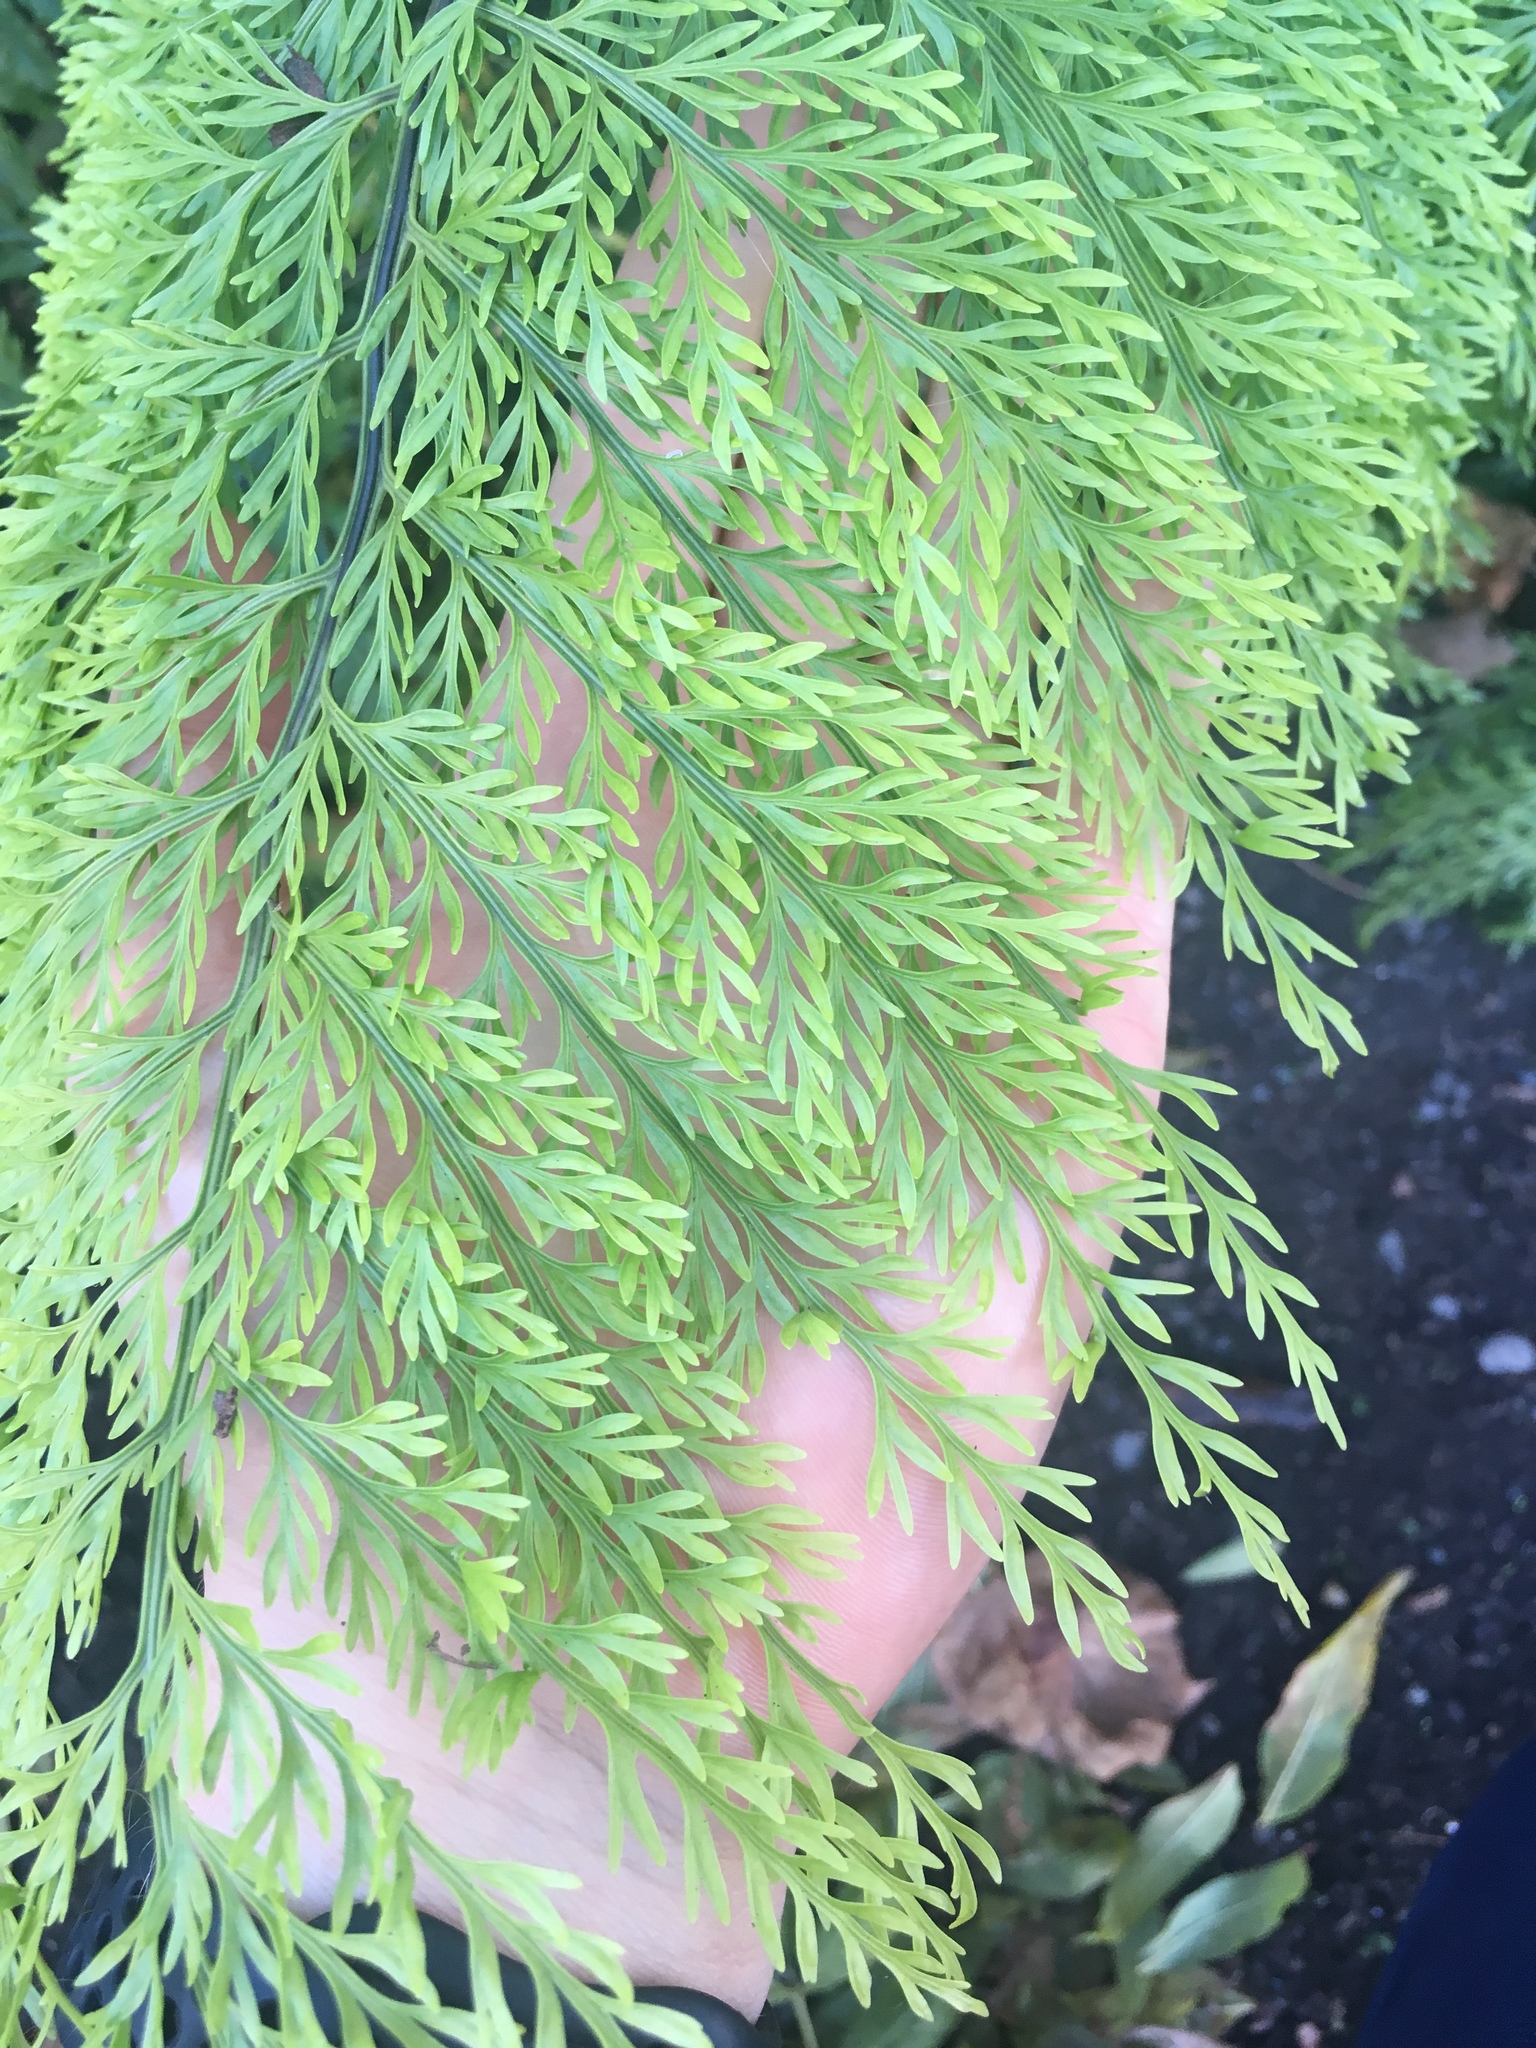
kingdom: Plantae
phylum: Tracheophyta
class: Polypodiopsida
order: Polypodiales
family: Aspleniaceae
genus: Asplenium
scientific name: Asplenium lucrosum
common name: False hen-and-chickens fern
